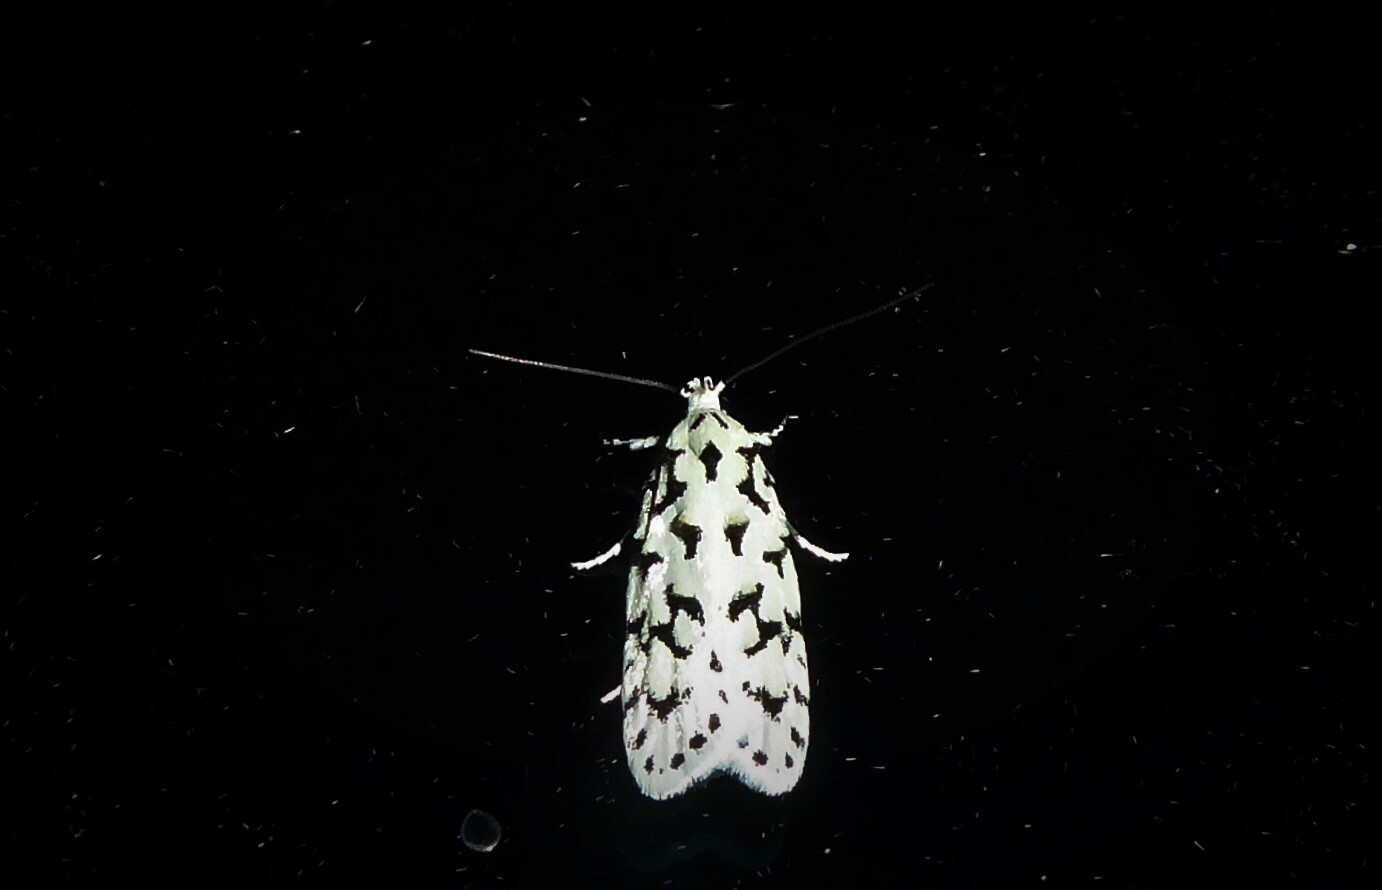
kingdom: Animalia
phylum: Arthropoda
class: Insecta
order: Lepidoptera
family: Oecophoridae
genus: Izatha
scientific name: Izatha huttoni
